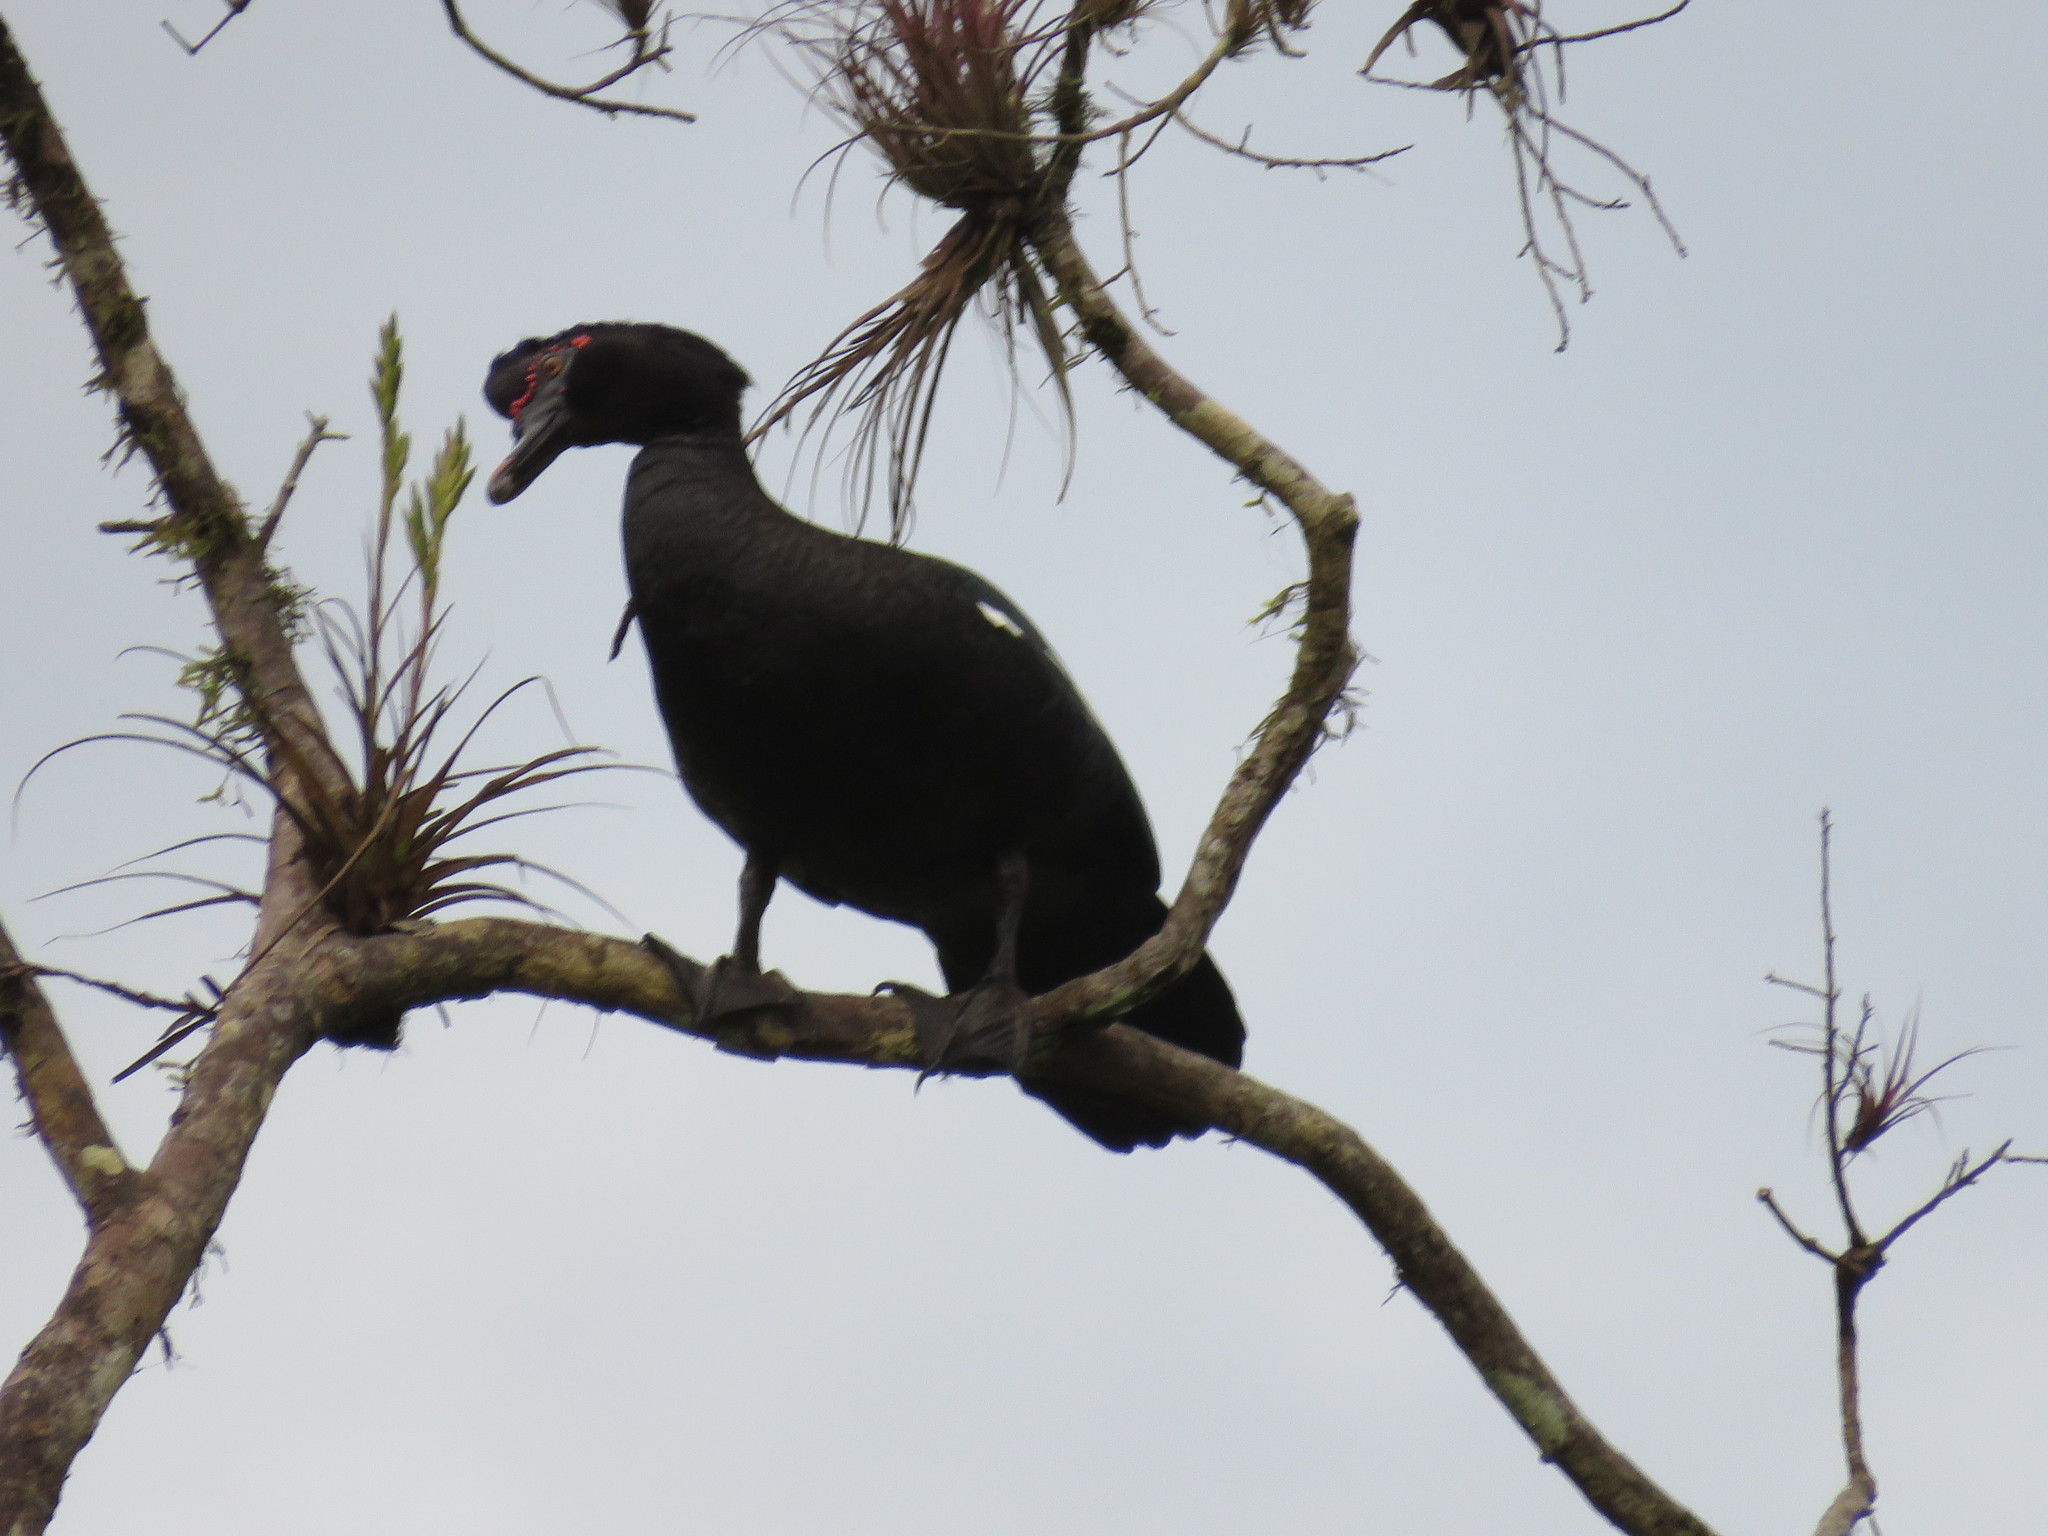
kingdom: Animalia
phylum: Chordata
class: Aves
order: Anseriformes
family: Anatidae
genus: Cairina
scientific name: Cairina moschata
